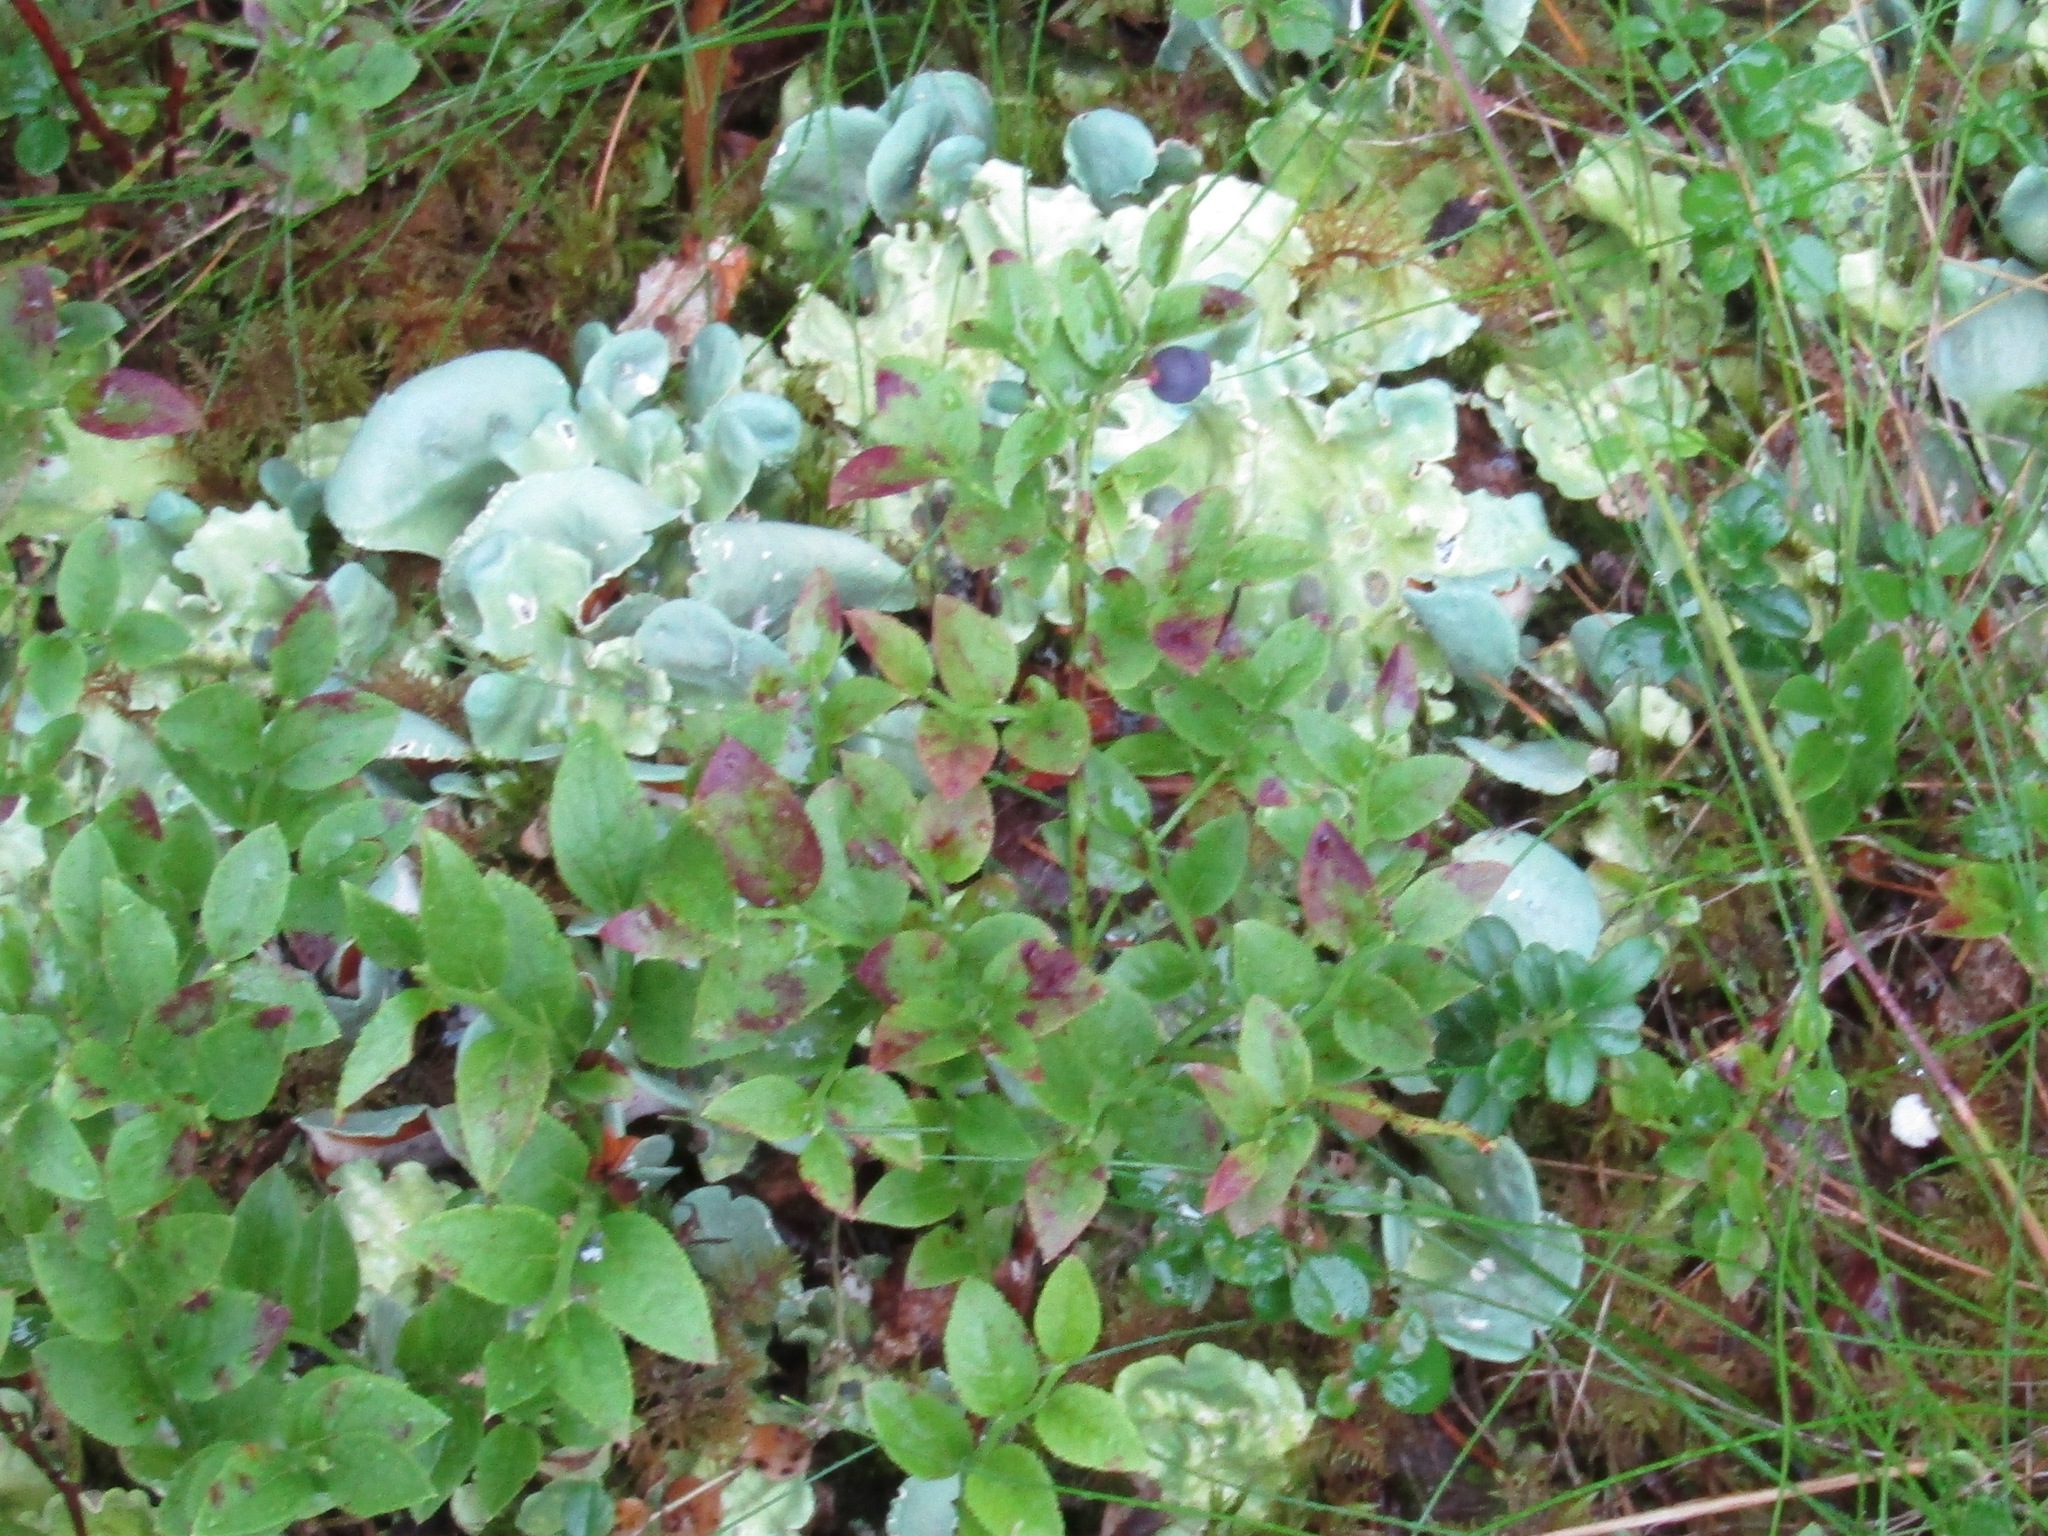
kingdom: Plantae
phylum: Tracheophyta
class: Magnoliopsida
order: Ericales
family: Ericaceae
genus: Vaccinium
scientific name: Vaccinium myrtillus
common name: Bilberry
